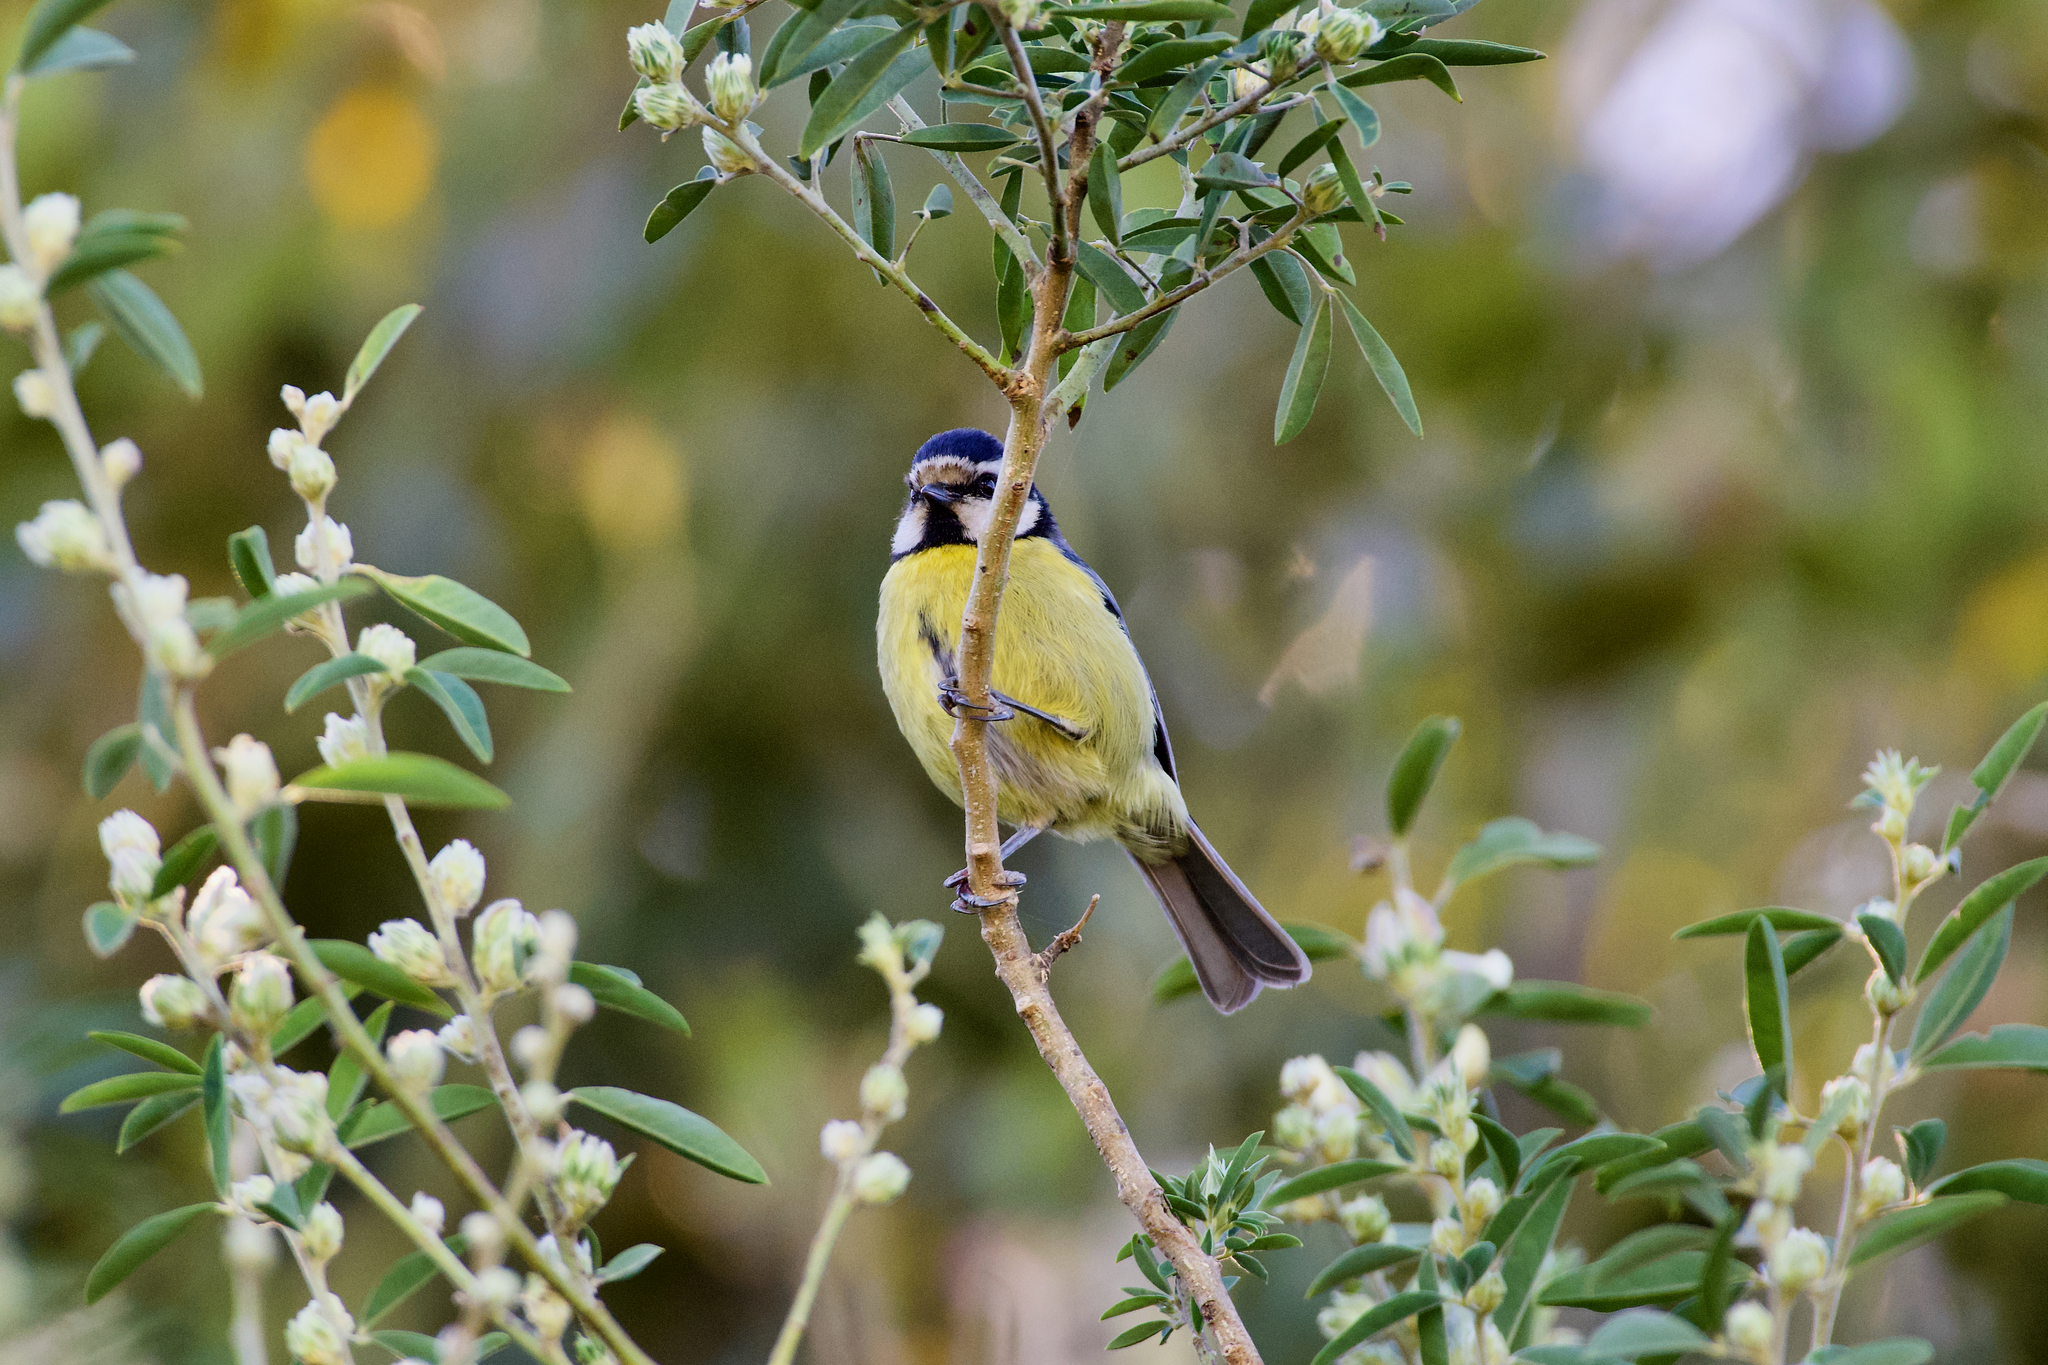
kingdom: Animalia
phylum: Chordata
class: Aves
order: Passeriformes
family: Paridae
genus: Cyanistes
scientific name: Cyanistes teneriffae
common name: African blue tit
